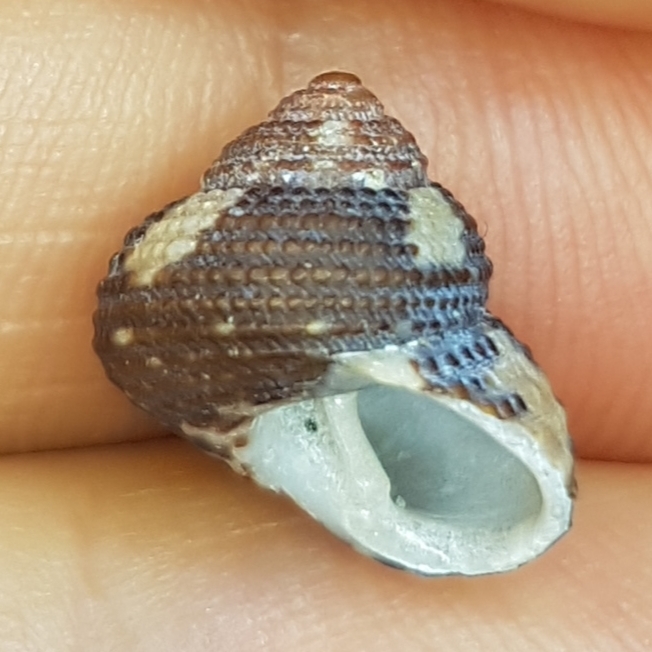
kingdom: Animalia
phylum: Mollusca
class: Gastropoda
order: Trochida
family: Trochidae
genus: Clanculus
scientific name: Clanculus cruciatus
